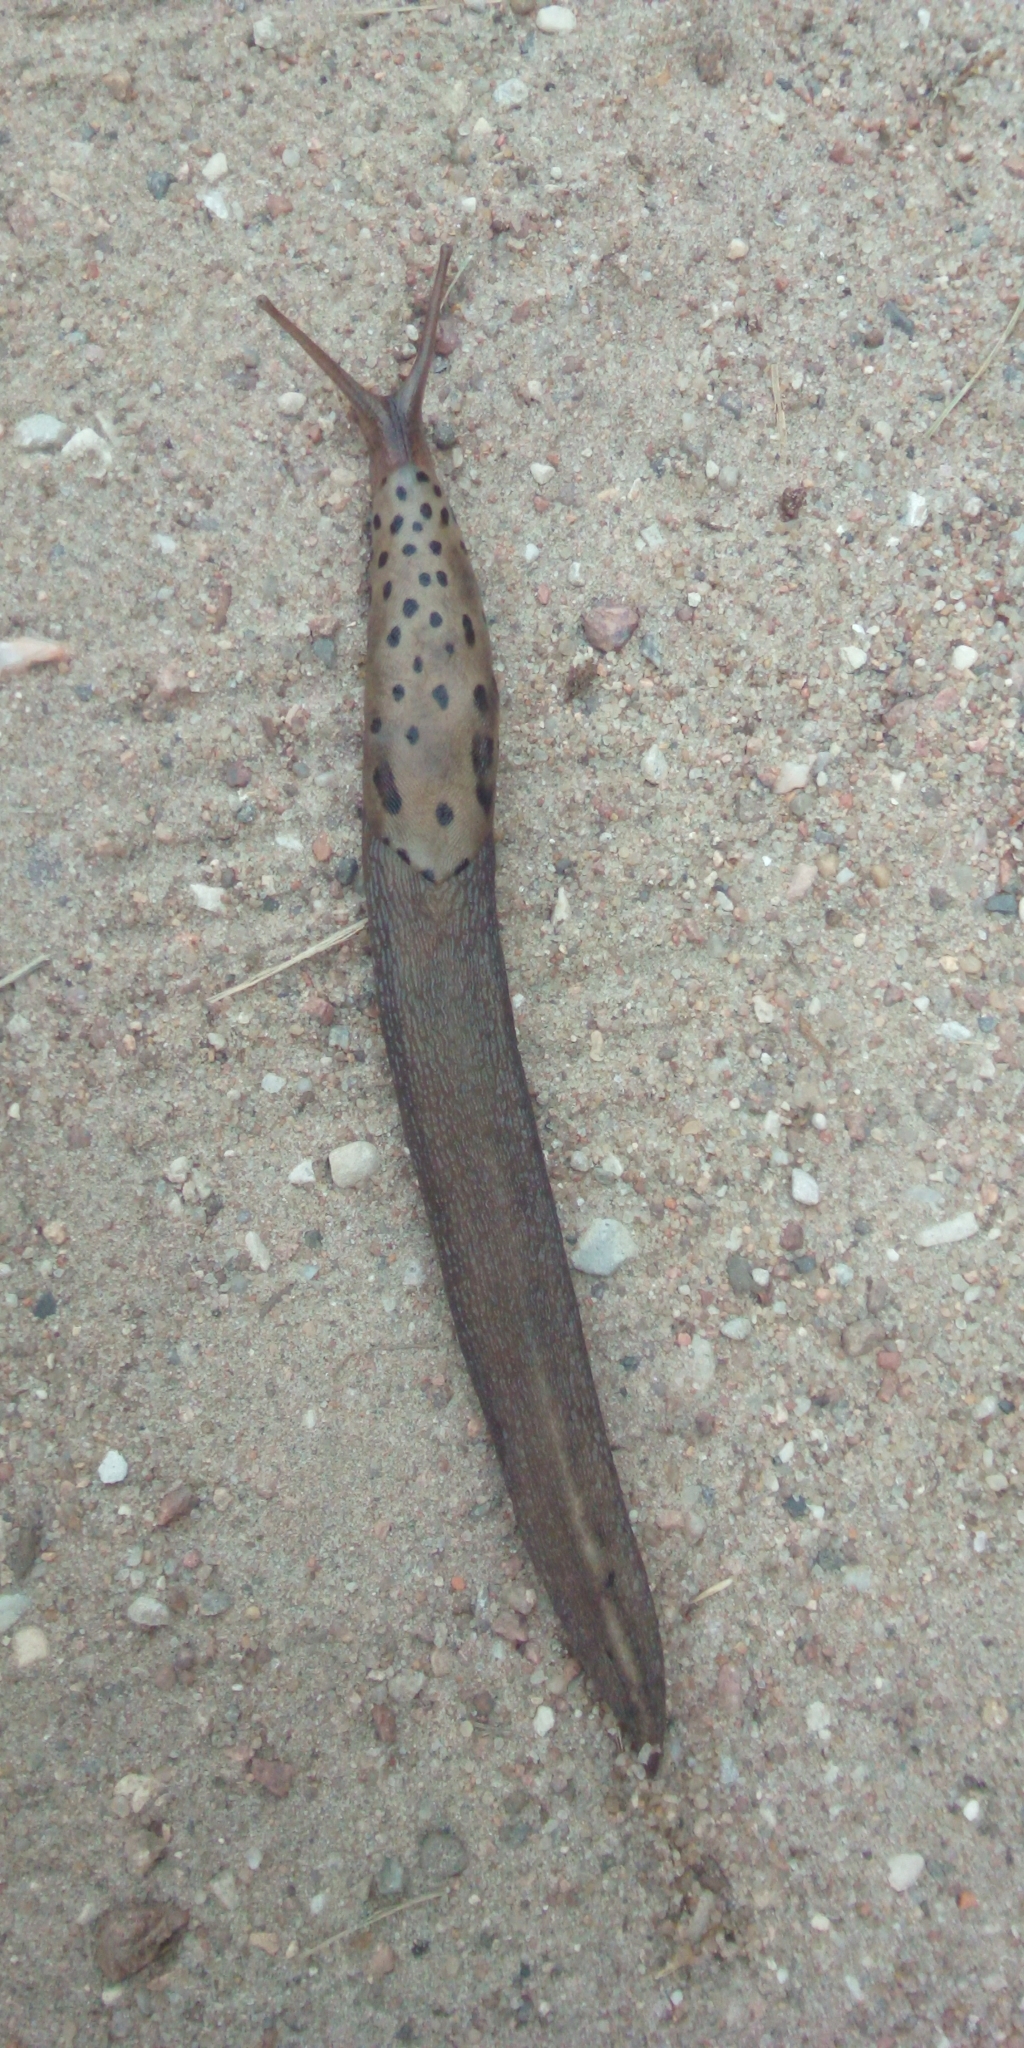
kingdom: Animalia
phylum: Mollusca
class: Gastropoda
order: Stylommatophora
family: Limacidae
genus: Limax
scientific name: Limax maximus
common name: Great grey slug
